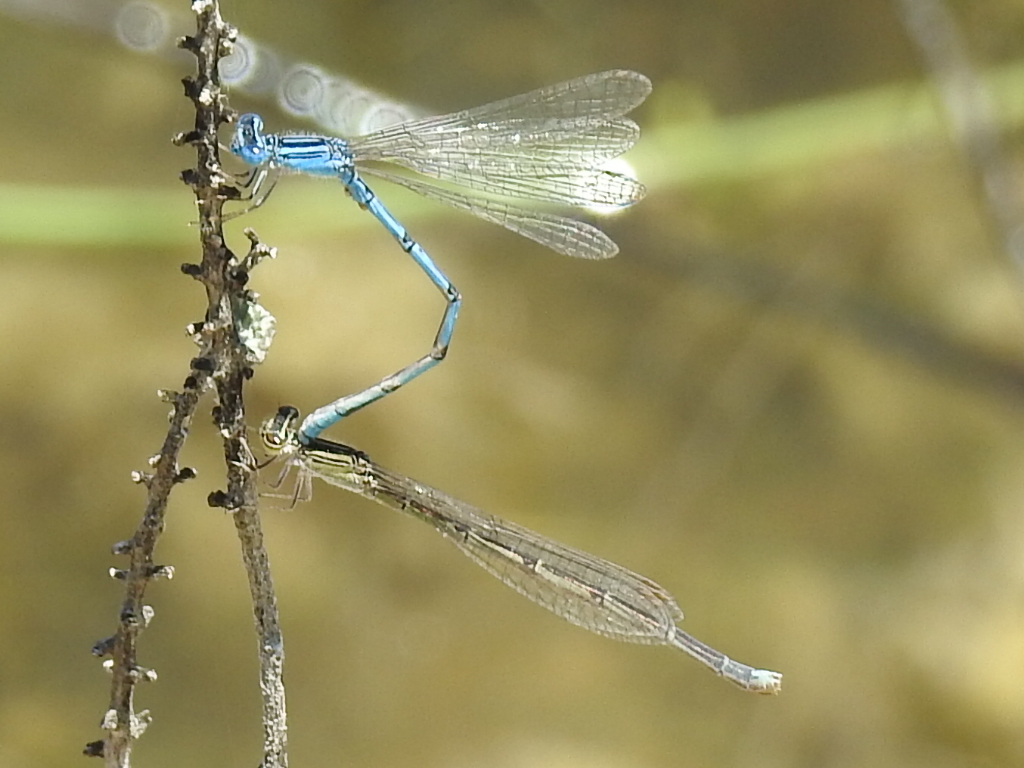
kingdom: Animalia
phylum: Arthropoda
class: Insecta
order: Odonata
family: Coenagrionidae
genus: Enallagma
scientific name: Enallagma basidens
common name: Double-striped bluet
